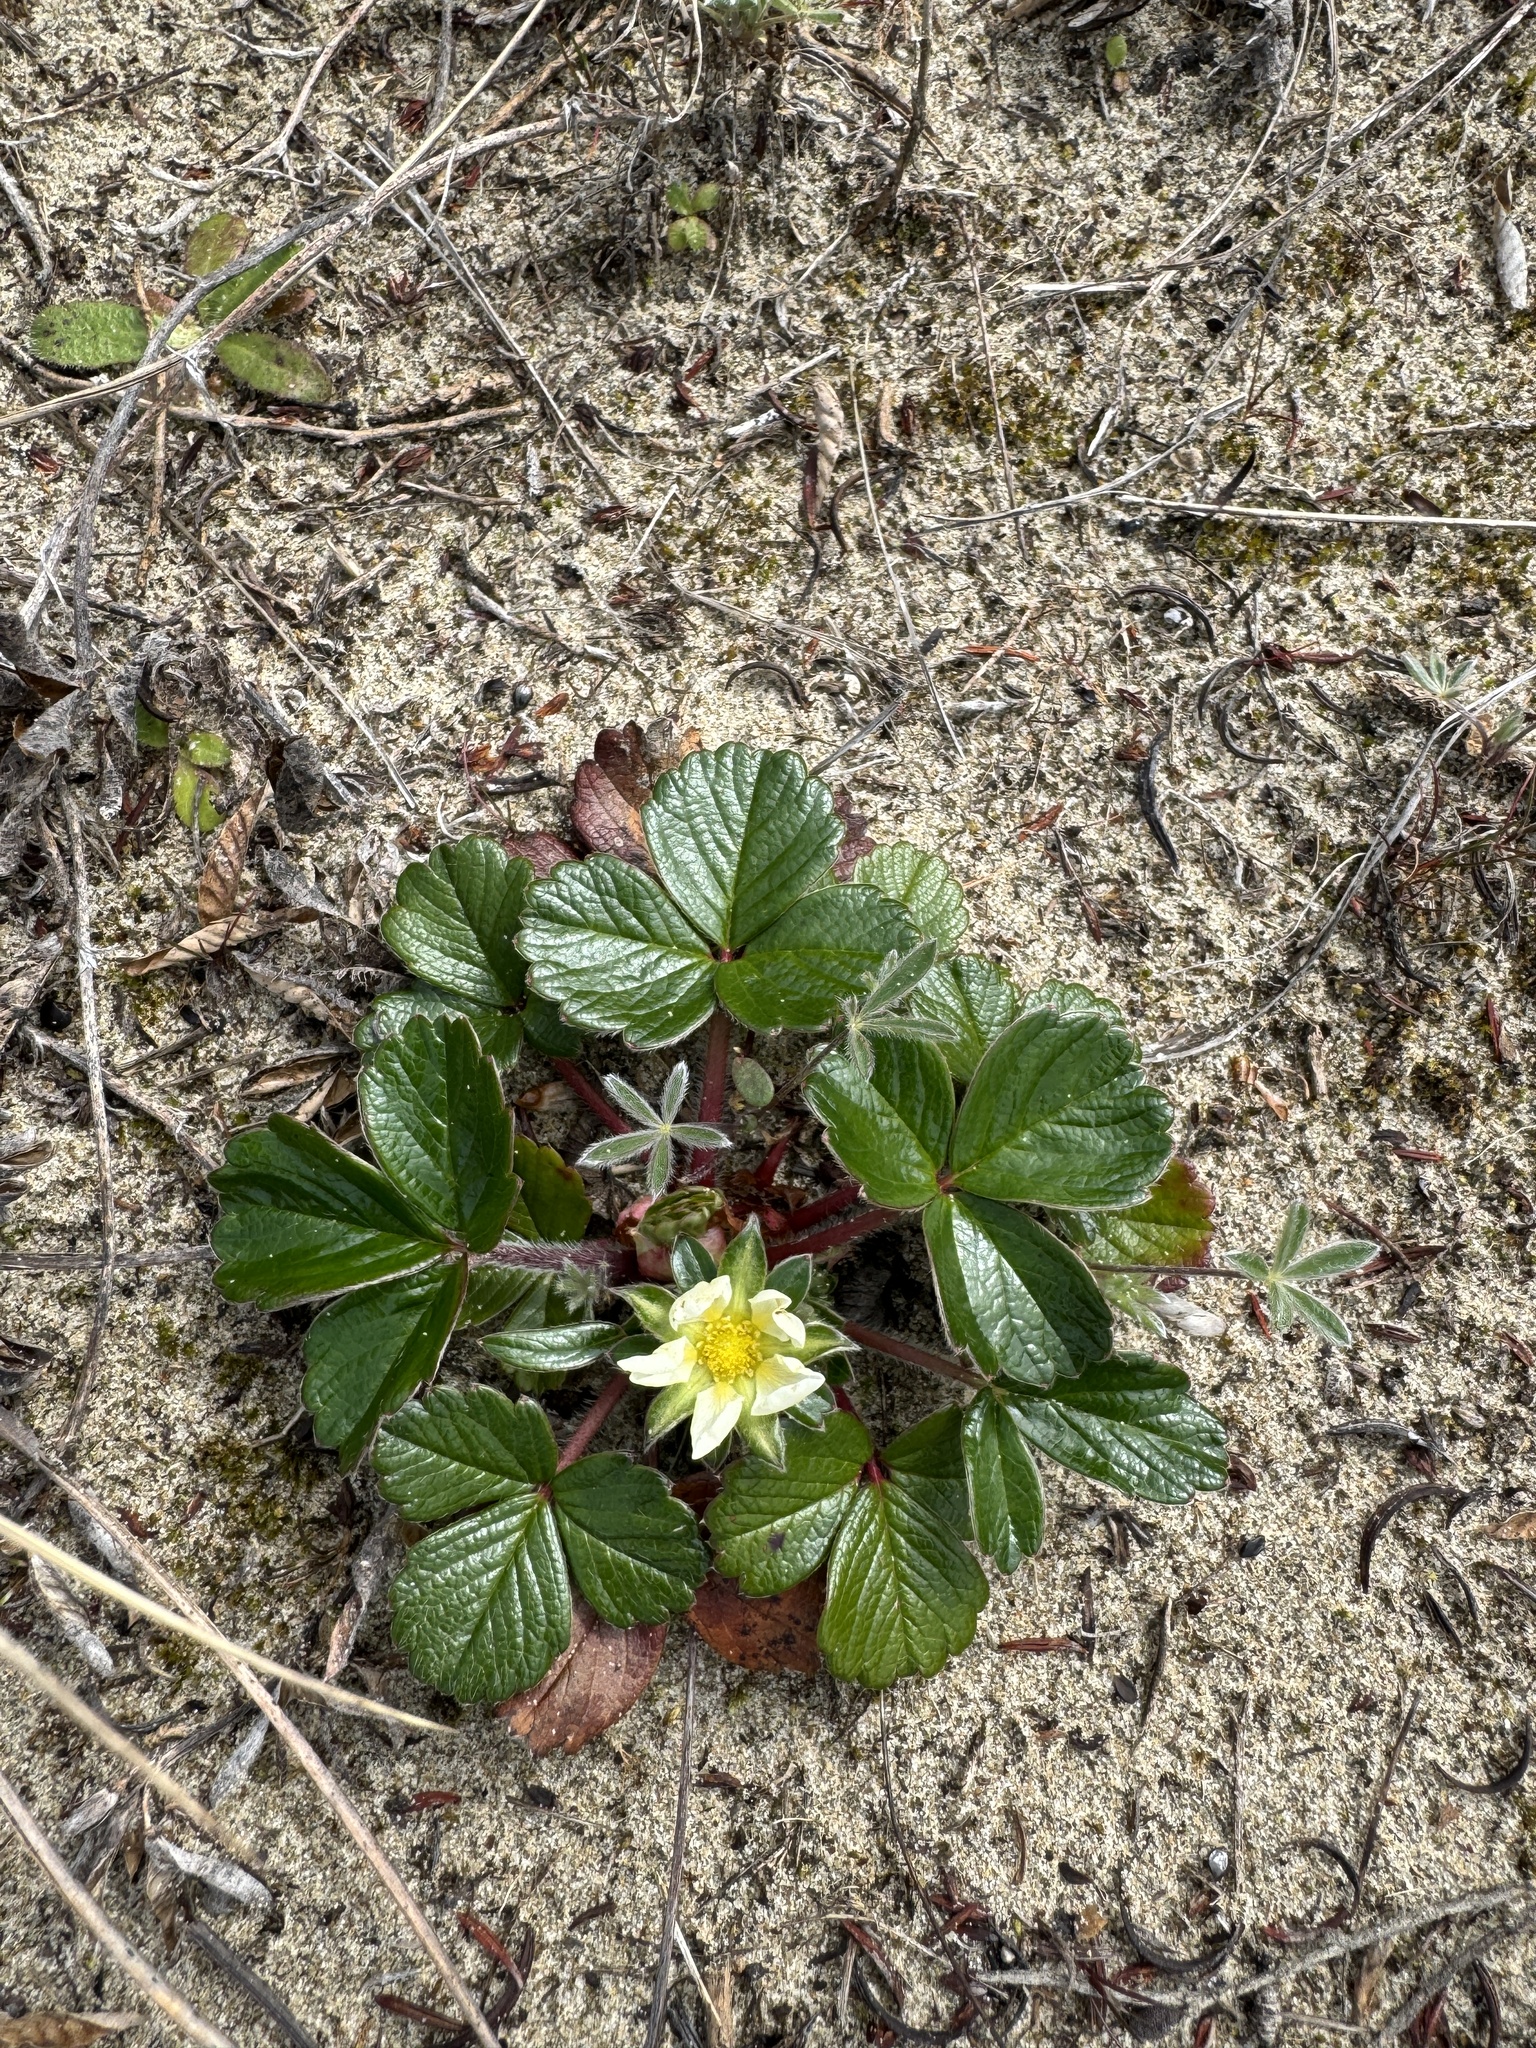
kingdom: Plantae
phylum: Tracheophyta
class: Magnoliopsida
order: Rosales
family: Rosaceae
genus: Fragaria
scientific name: Fragaria chiloensis
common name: Beach strawberry
